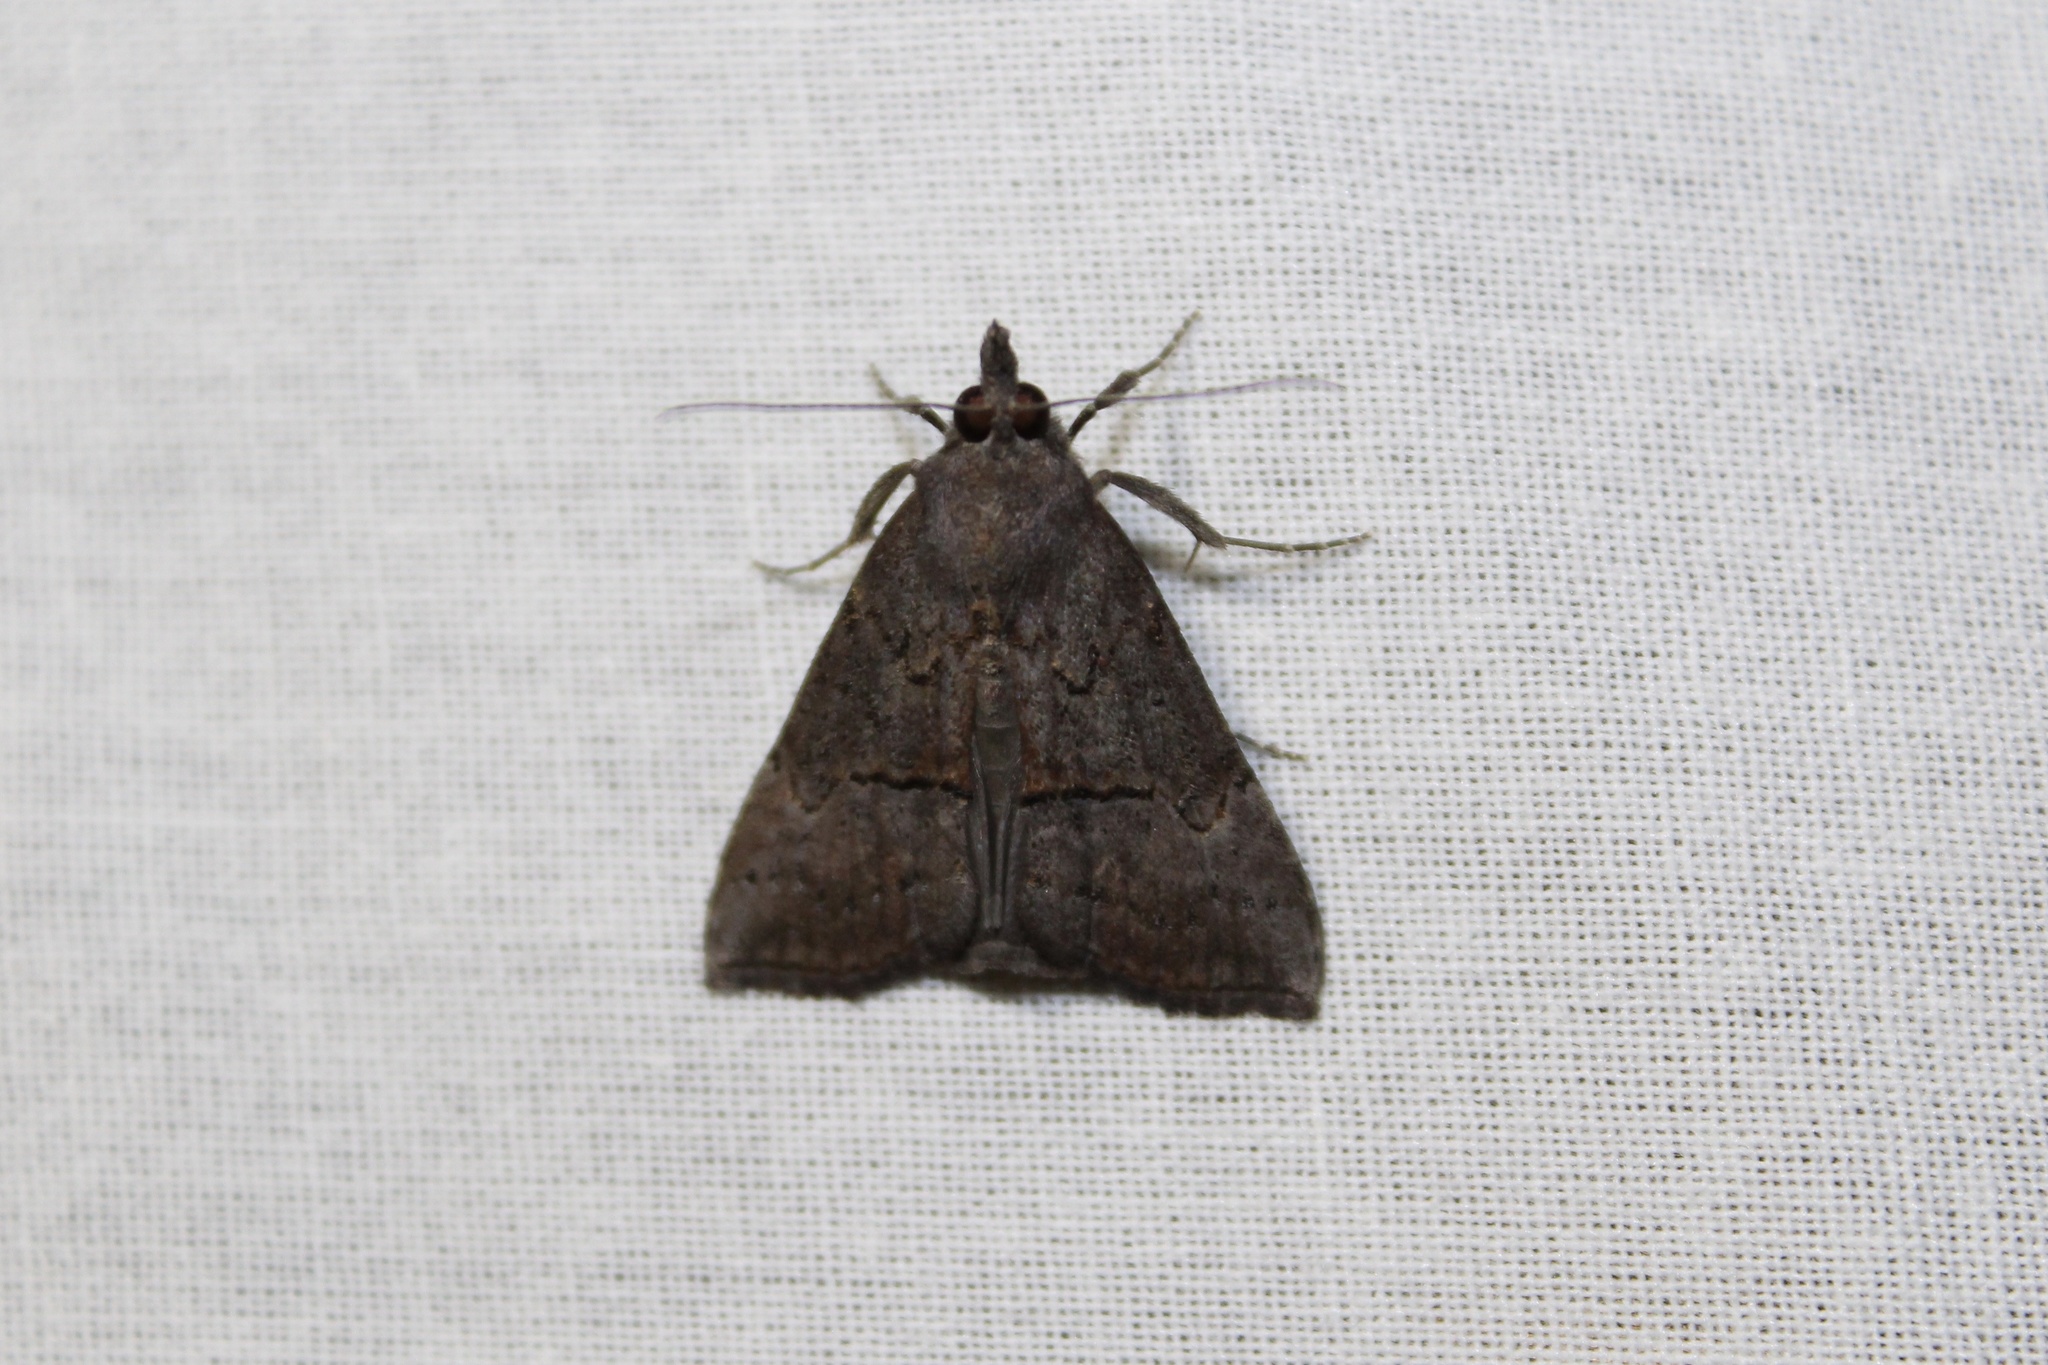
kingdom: Animalia
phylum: Arthropoda
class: Insecta
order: Lepidoptera
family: Erebidae
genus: Hypena
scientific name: Hypena scabra
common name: Green cloverworm
